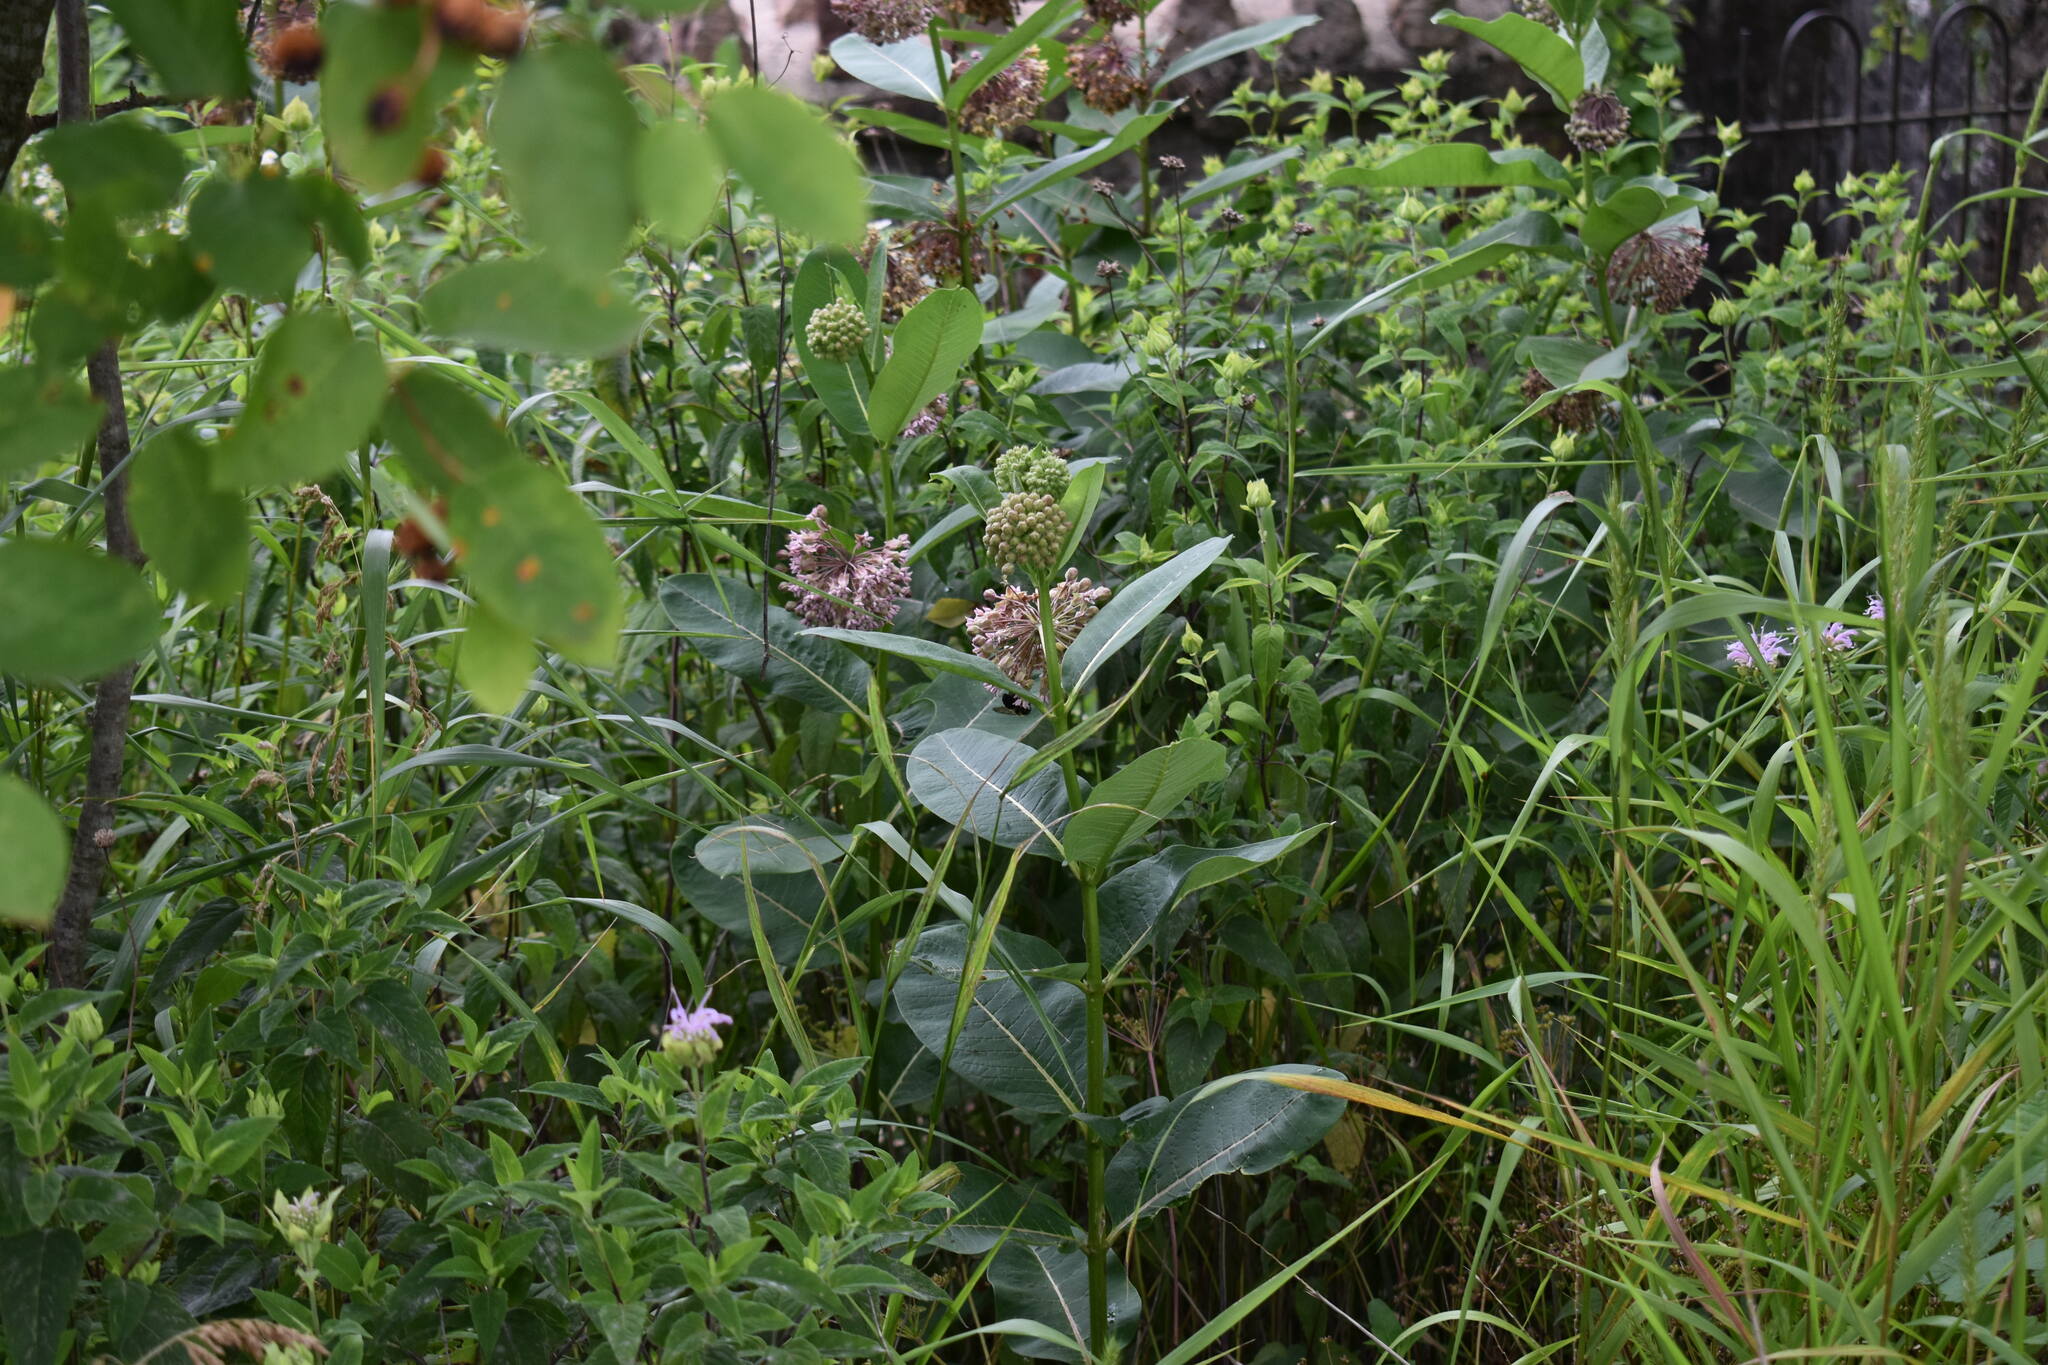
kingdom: Plantae
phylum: Tracheophyta
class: Magnoliopsida
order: Gentianales
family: Apocynaceae
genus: Asclepias
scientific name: Asclepias syriaca
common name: Common milkweed
